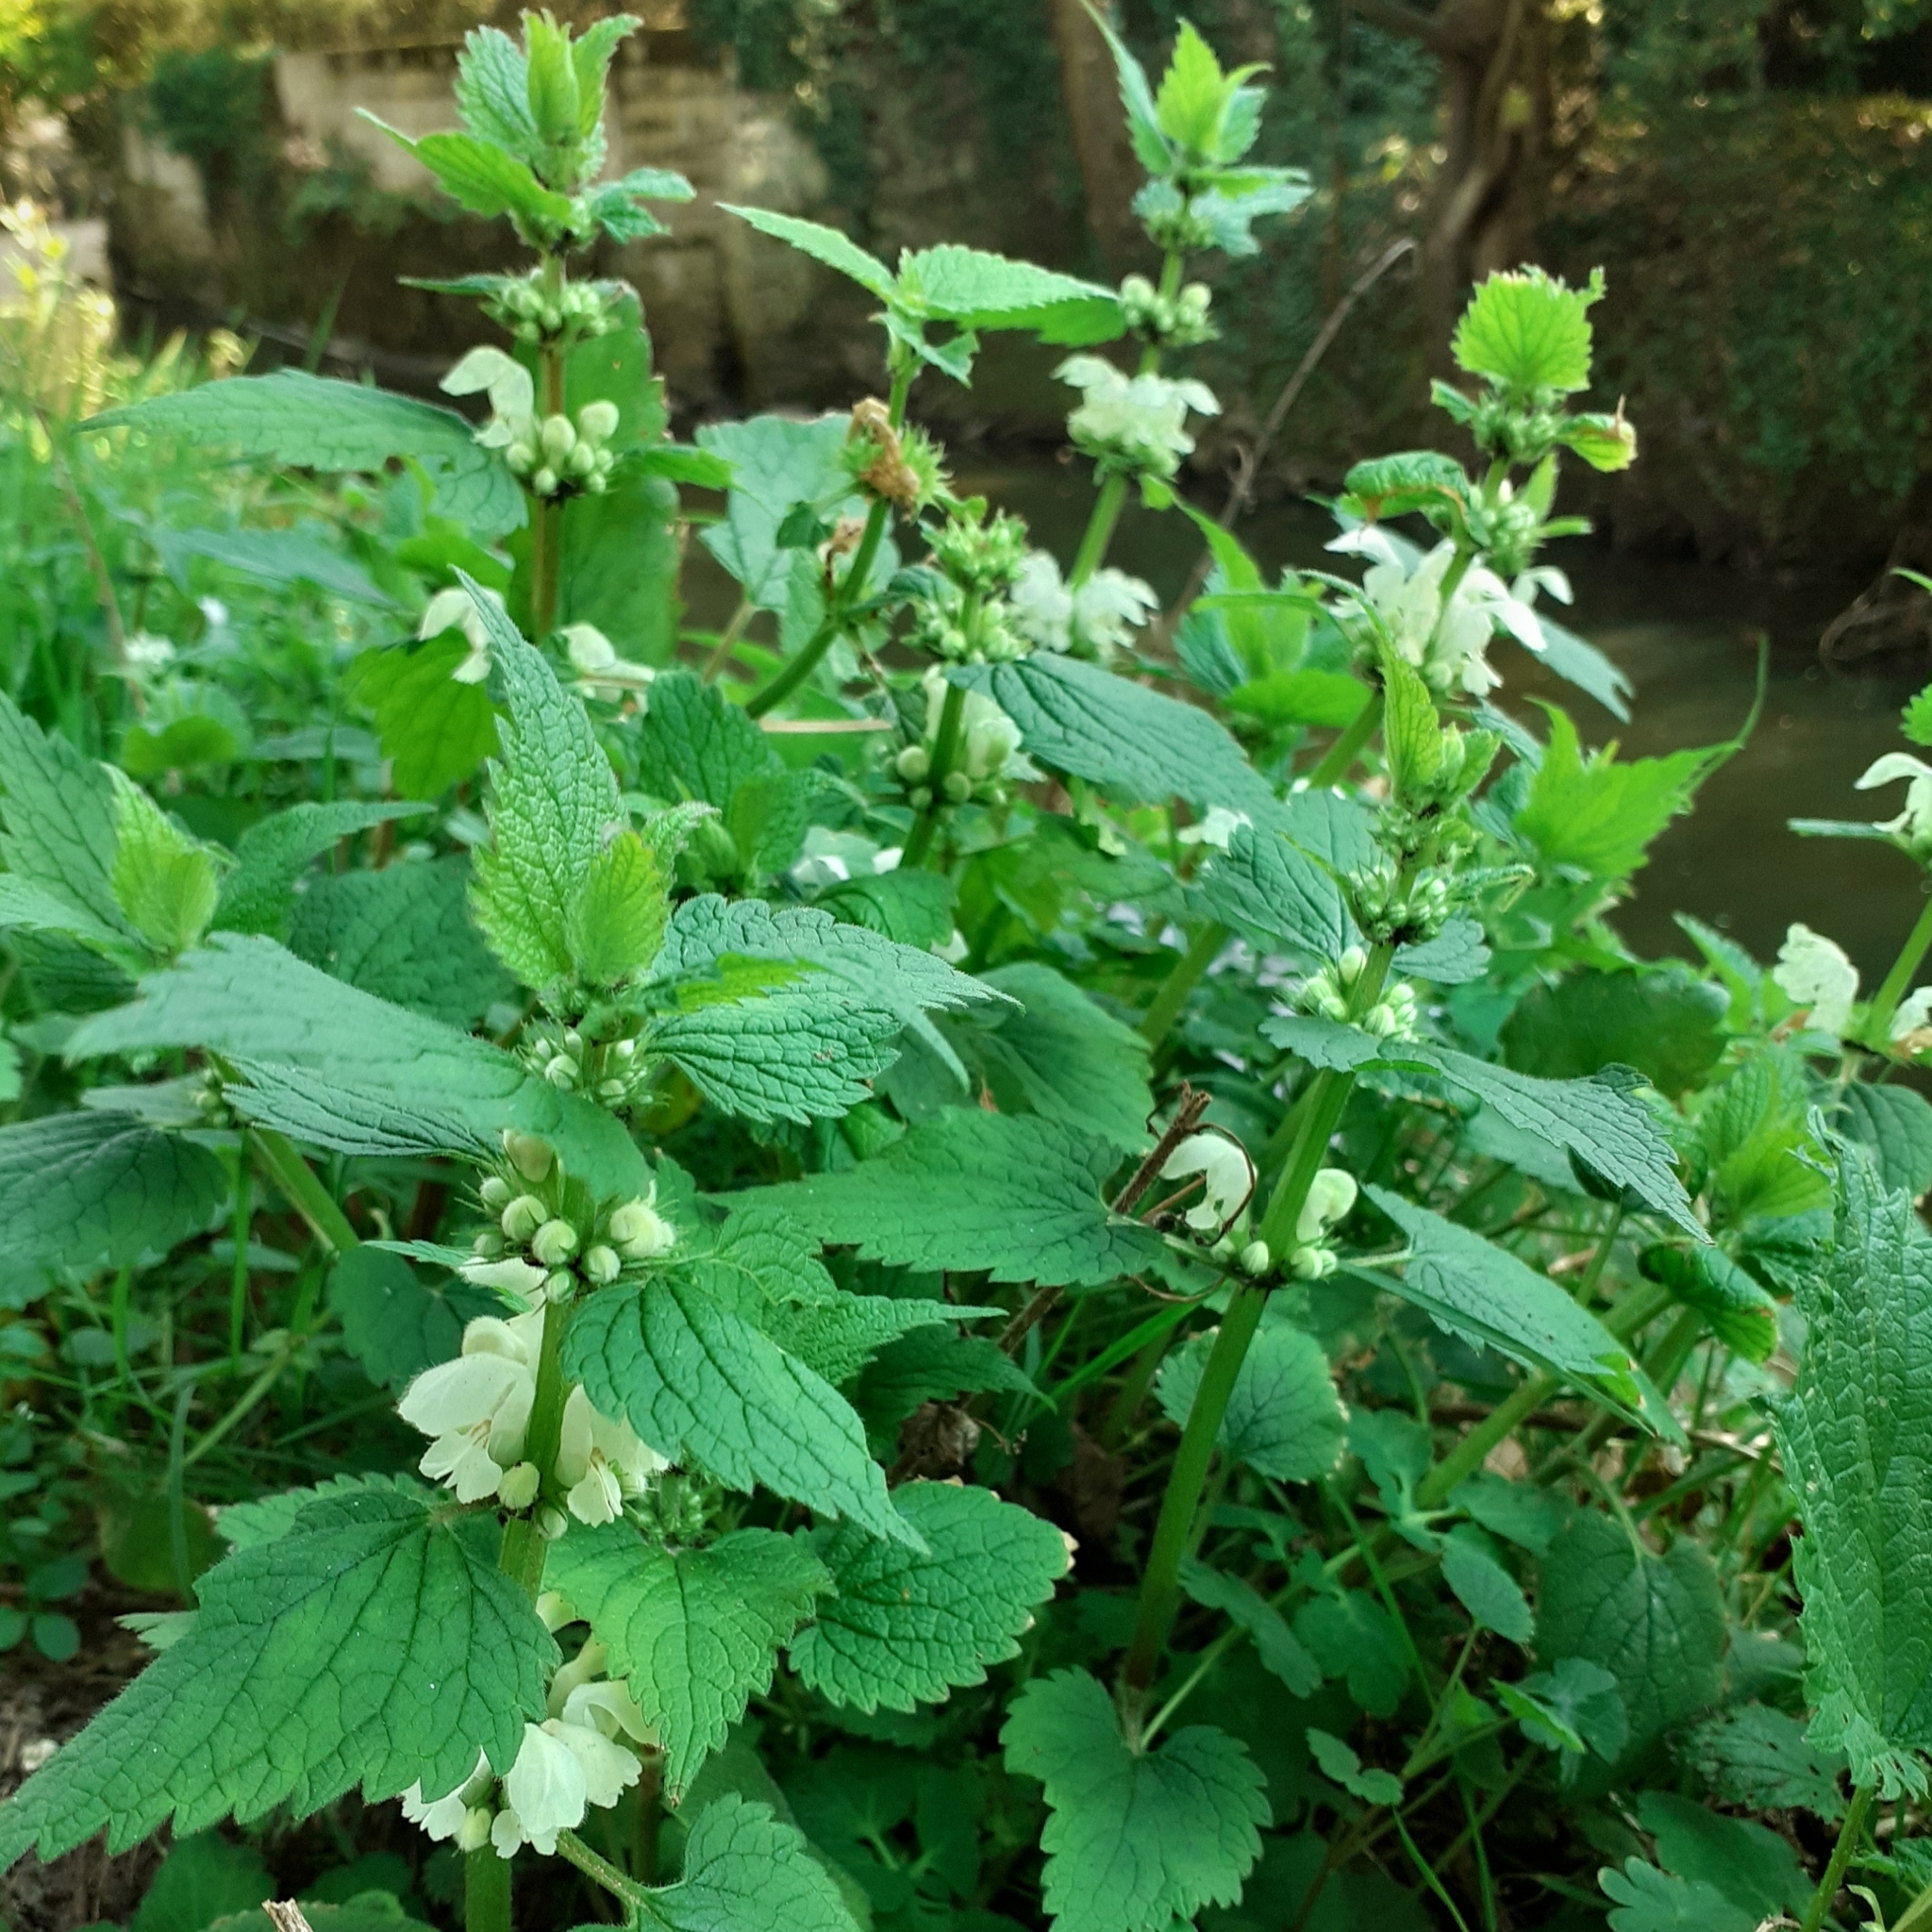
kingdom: Plantae
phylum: Tracheophyta
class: Magnoliopsida
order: Lamiales
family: Lamiaceae
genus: Lamium
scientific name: Lamium album
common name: White dead-nettle
